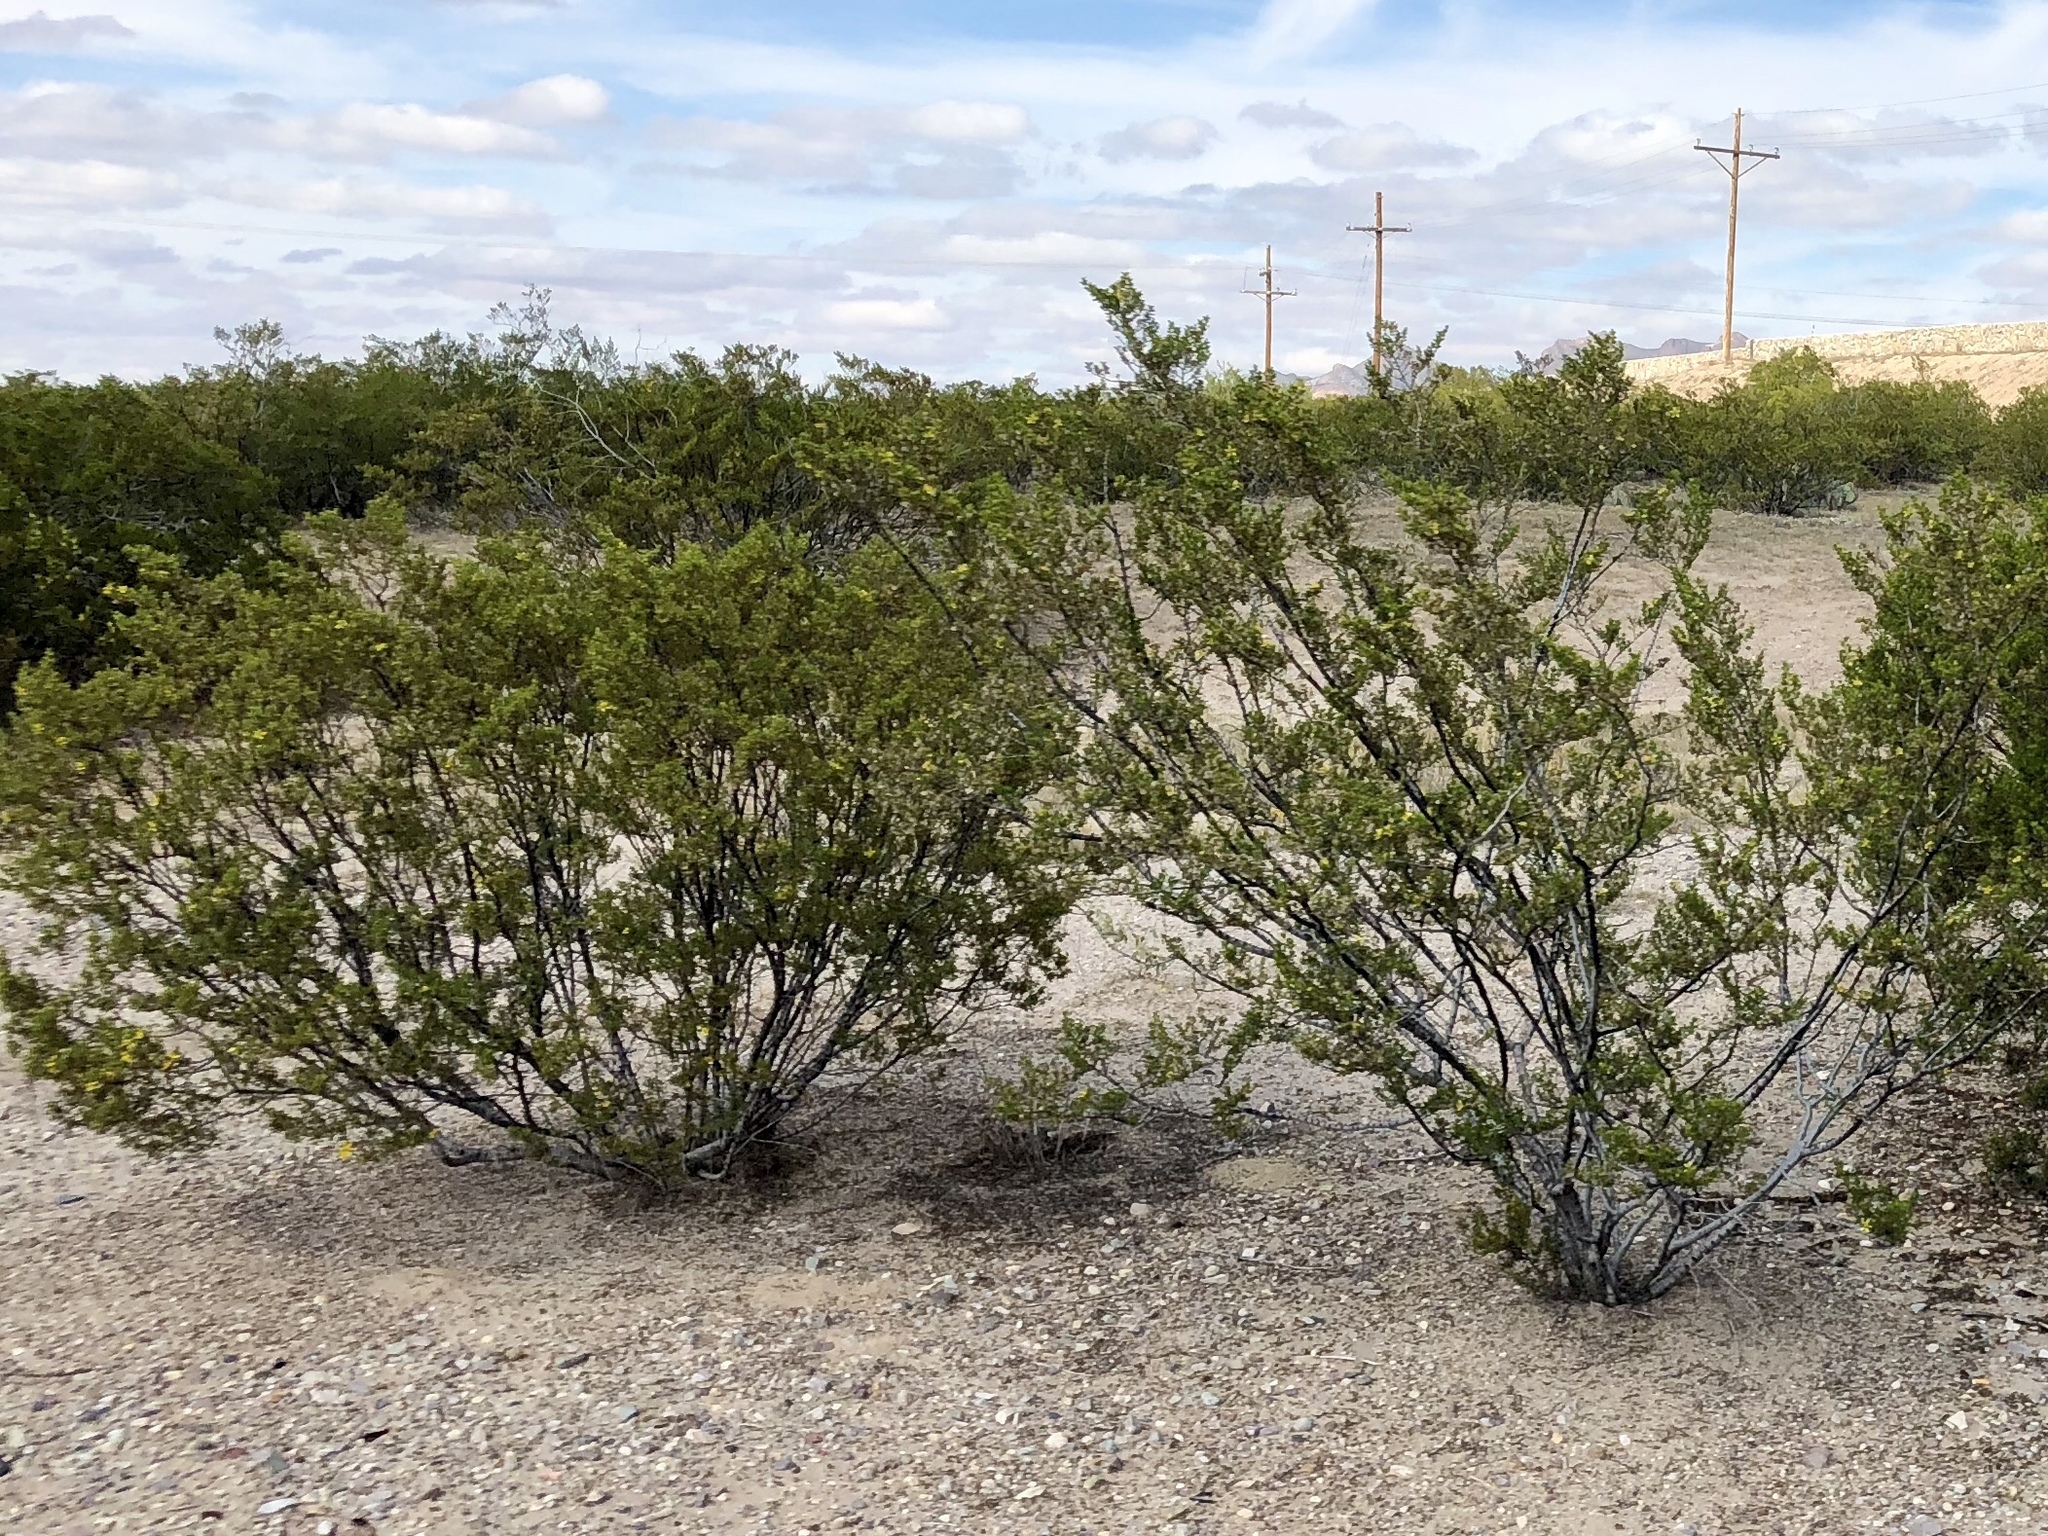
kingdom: Plantae
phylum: Tracheophyta
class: Magnoliopsida
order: Zygophyllales
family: Zygophyllaceae
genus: Larrea
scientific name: Larrea tridentata
